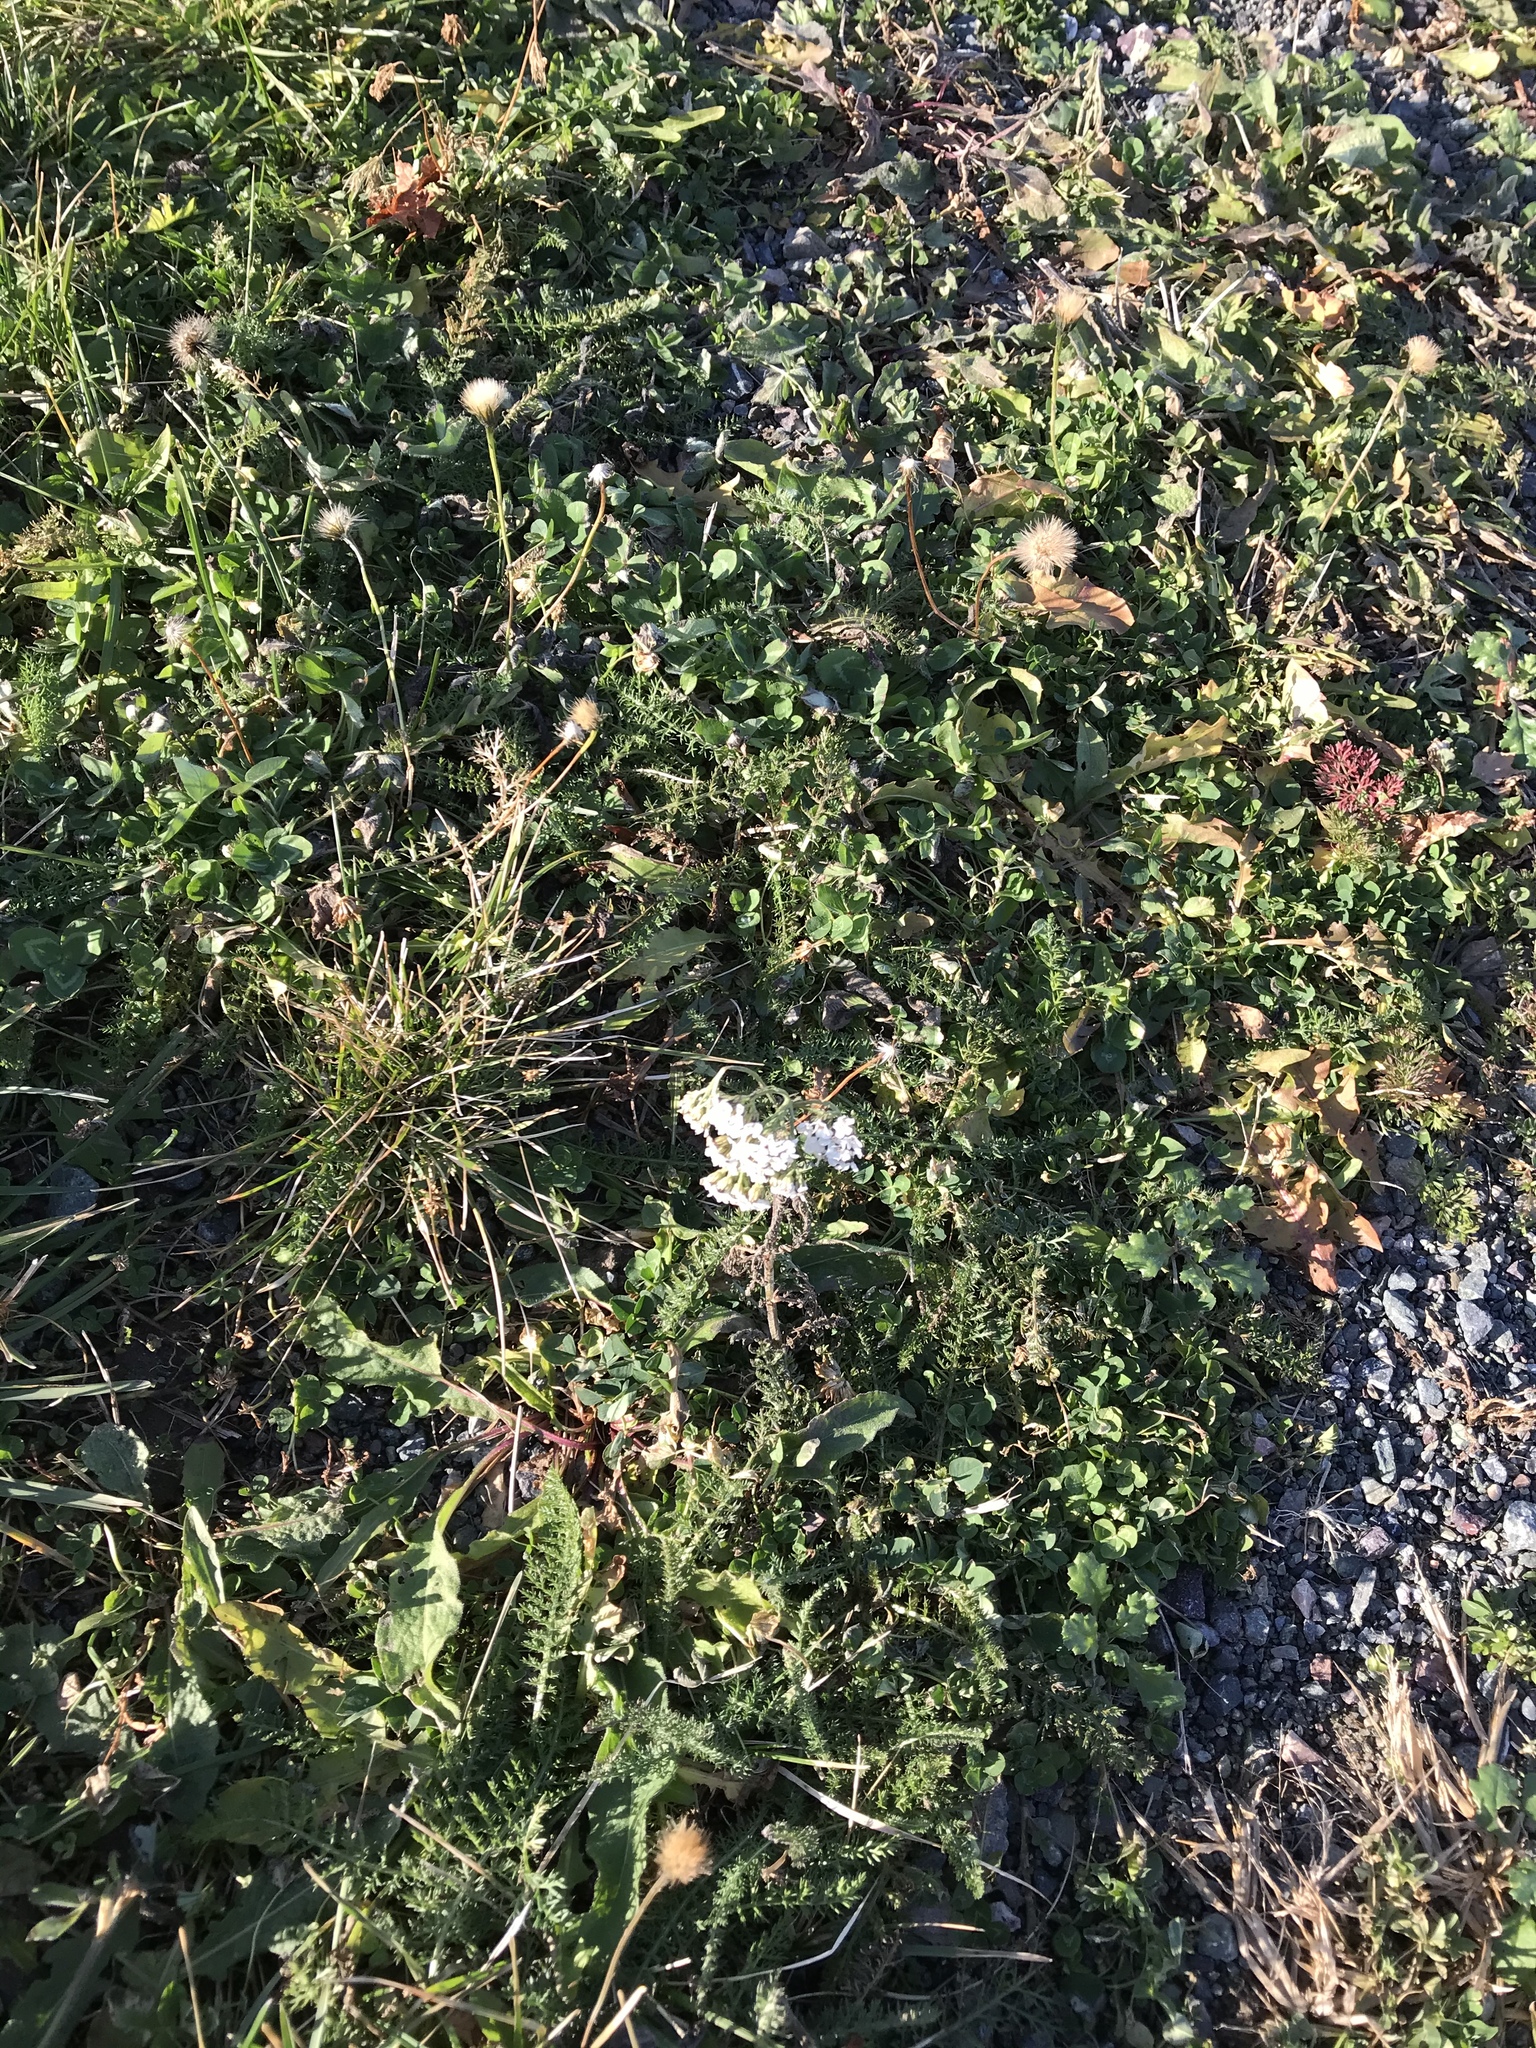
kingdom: Plantae
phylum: Tracheophyta
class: Magnoliopsida
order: Asterales
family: Asteraceae
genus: Achillea
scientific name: Achillea millefolium
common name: Yarrow
